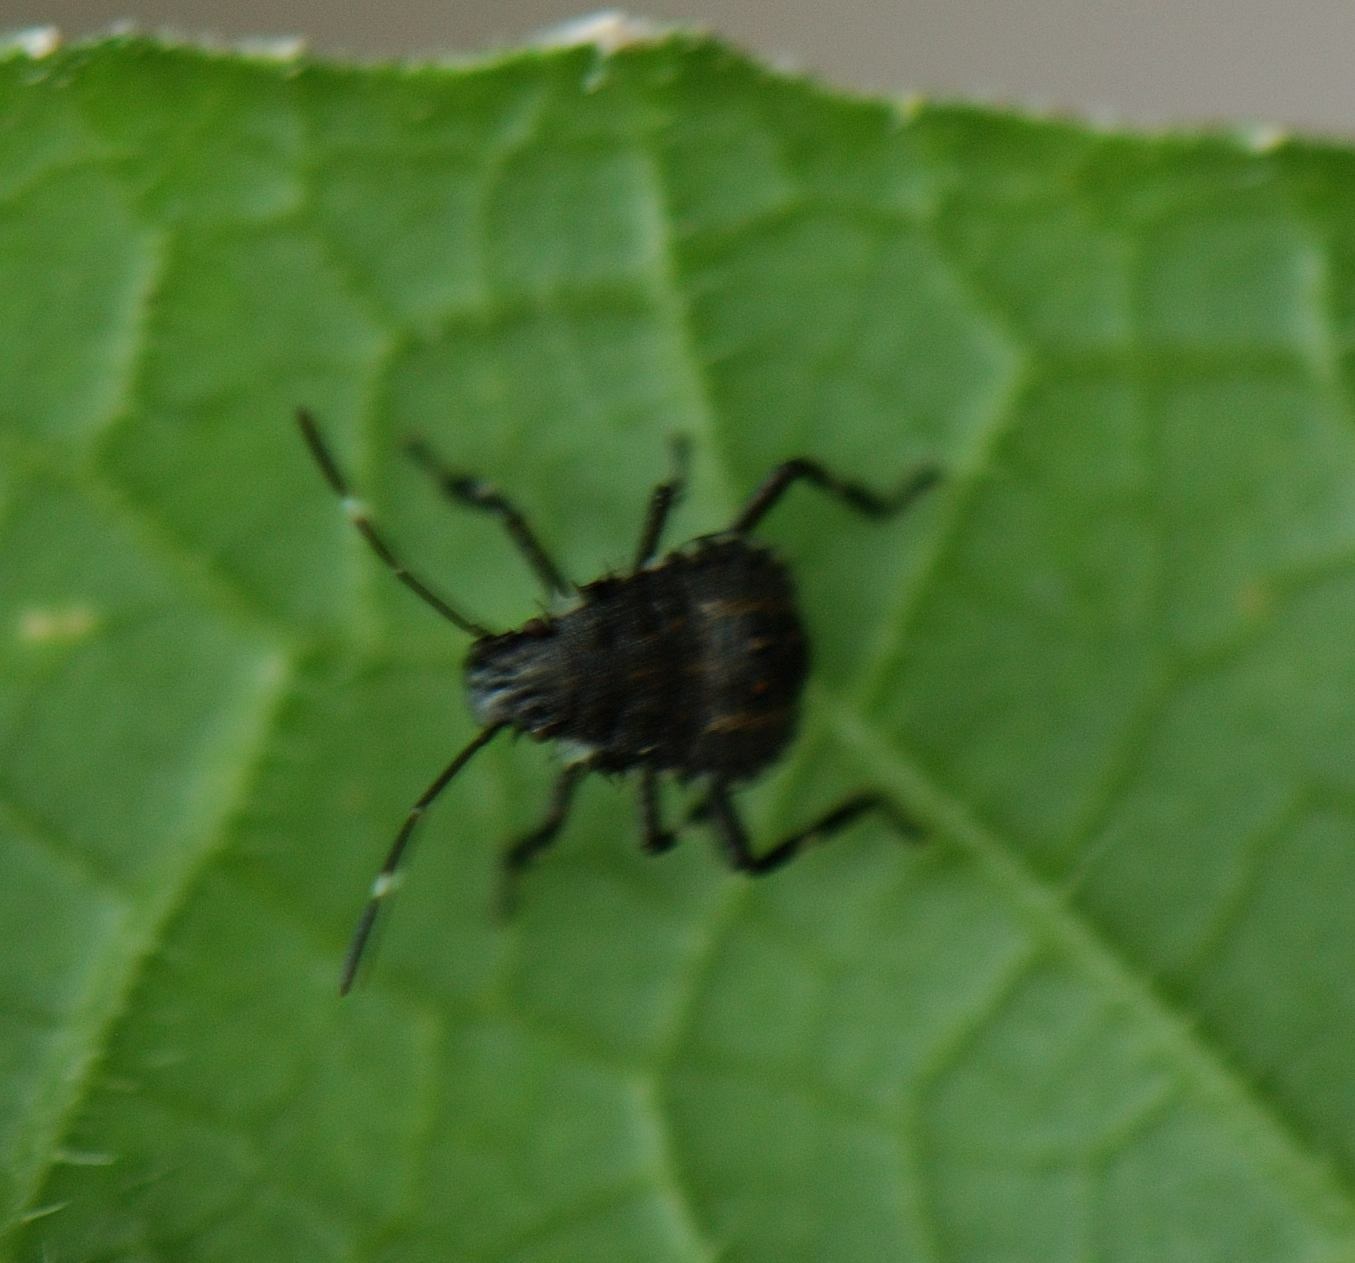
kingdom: Animalia
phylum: Arthropoda
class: Insecta
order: Hemiptera
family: Pentatomidae
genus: Halyomorpha
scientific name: Halyomorpha halys
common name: Brown marmorated stink bug
